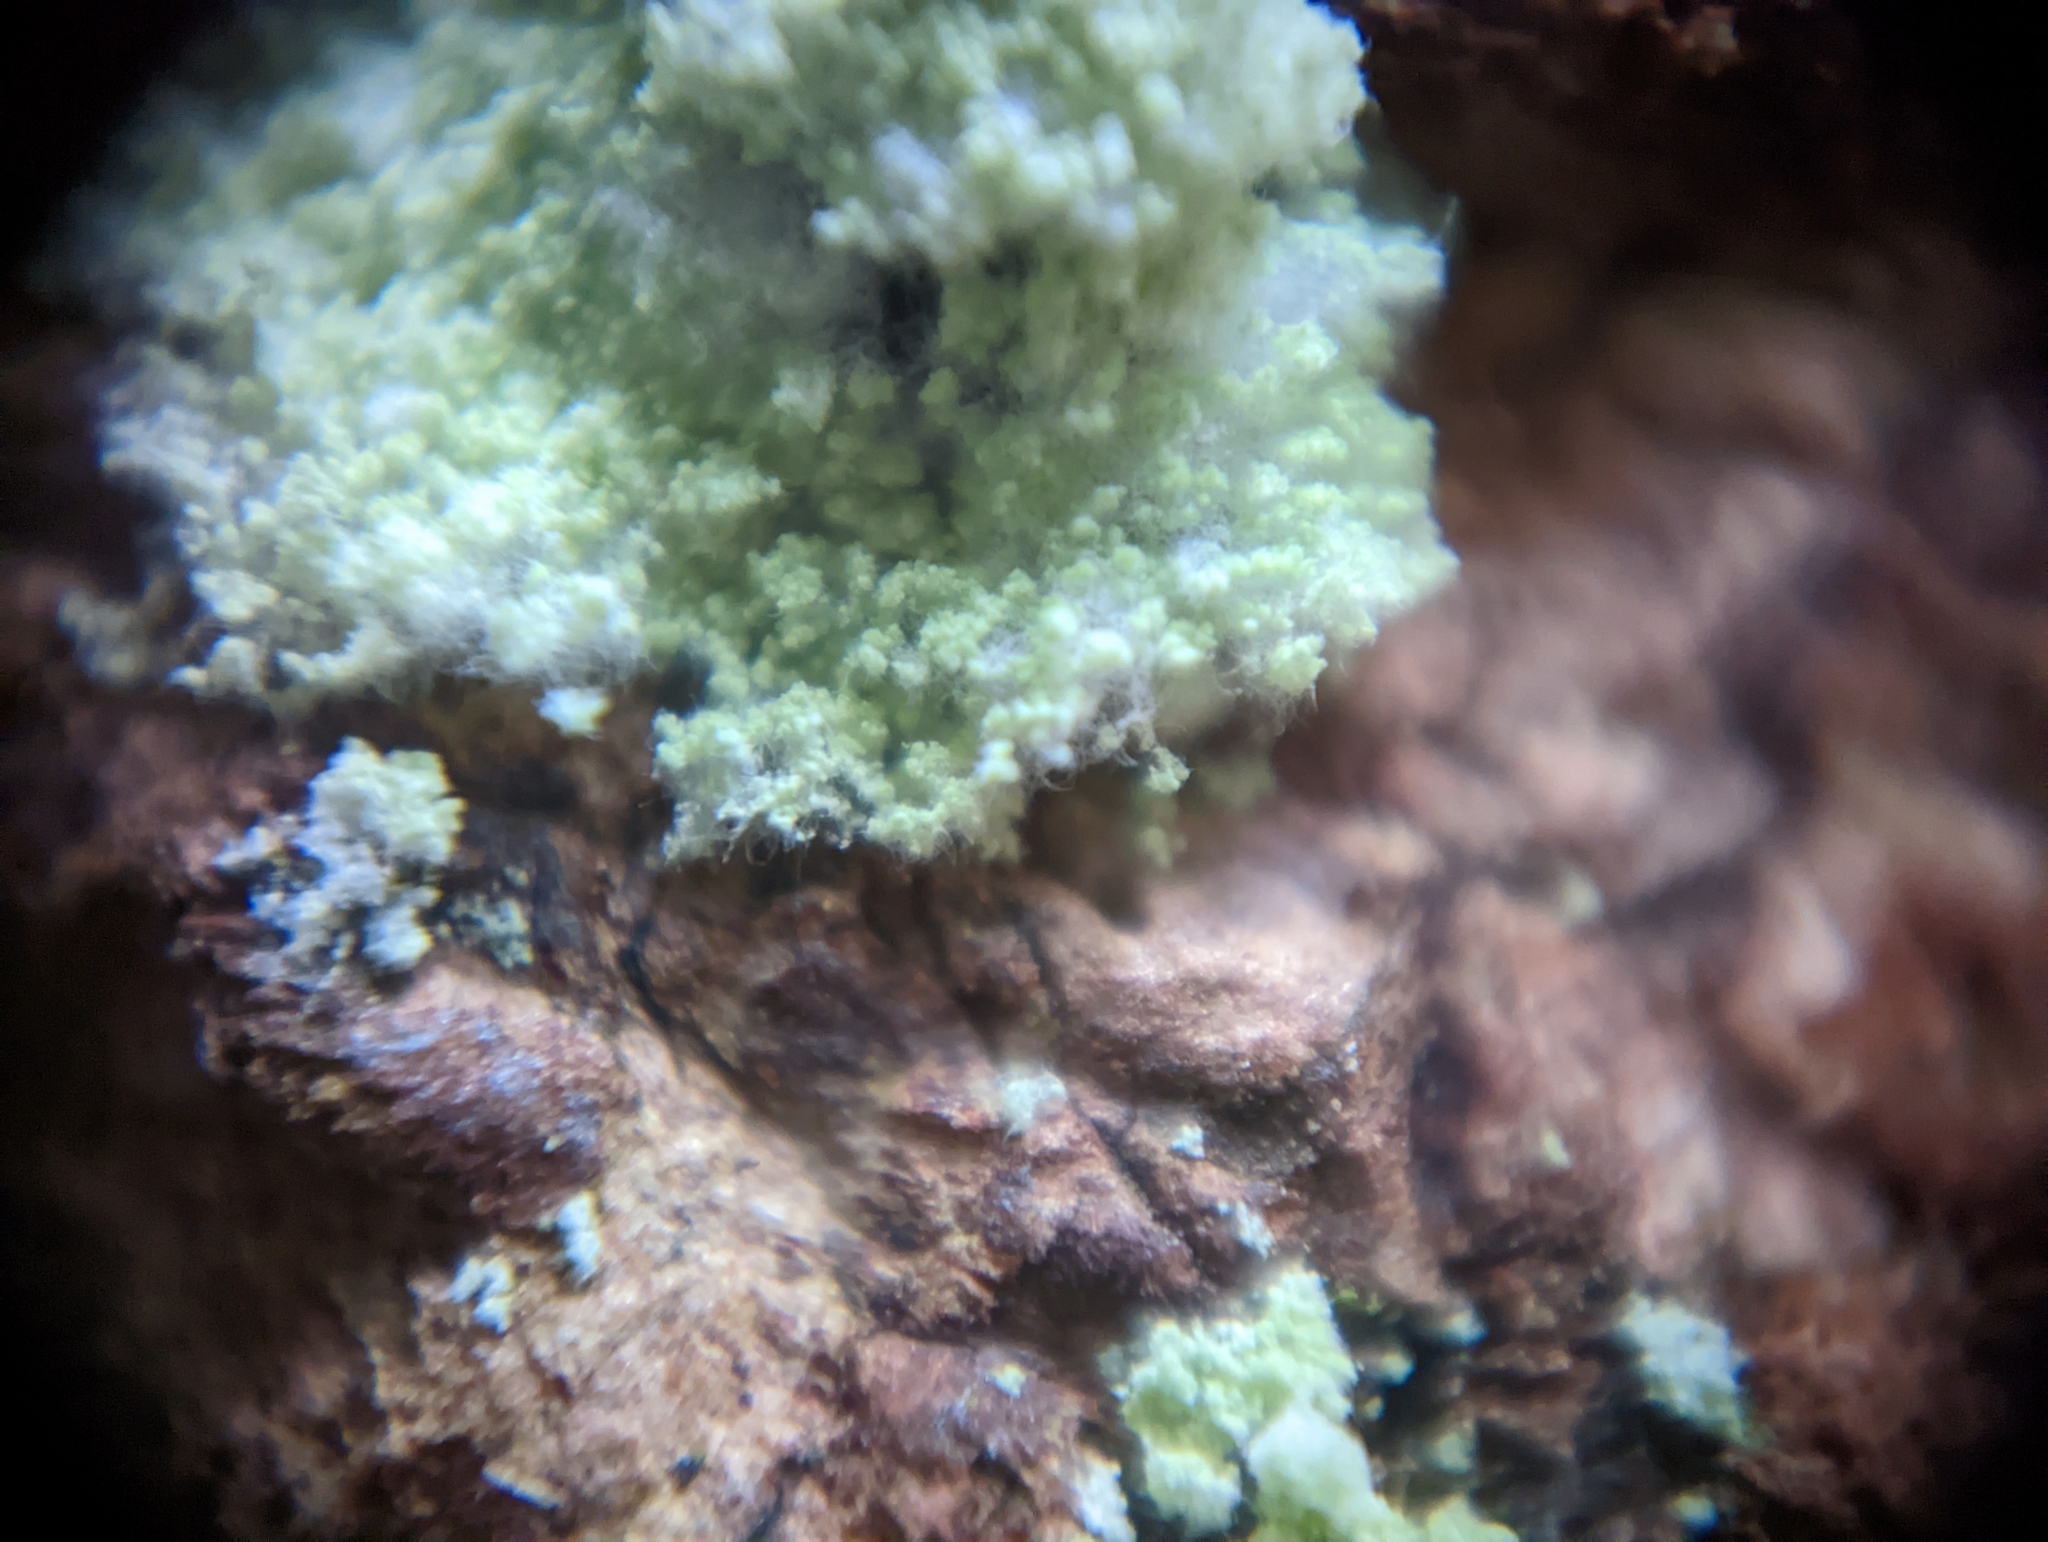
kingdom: Fungi
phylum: Ascomycota
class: Lecanoromycetes
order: Lecanorales
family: Stereocaulaceae
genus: Lepraria
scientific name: Lepraria lobificans
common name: Fluffy dust lichen
